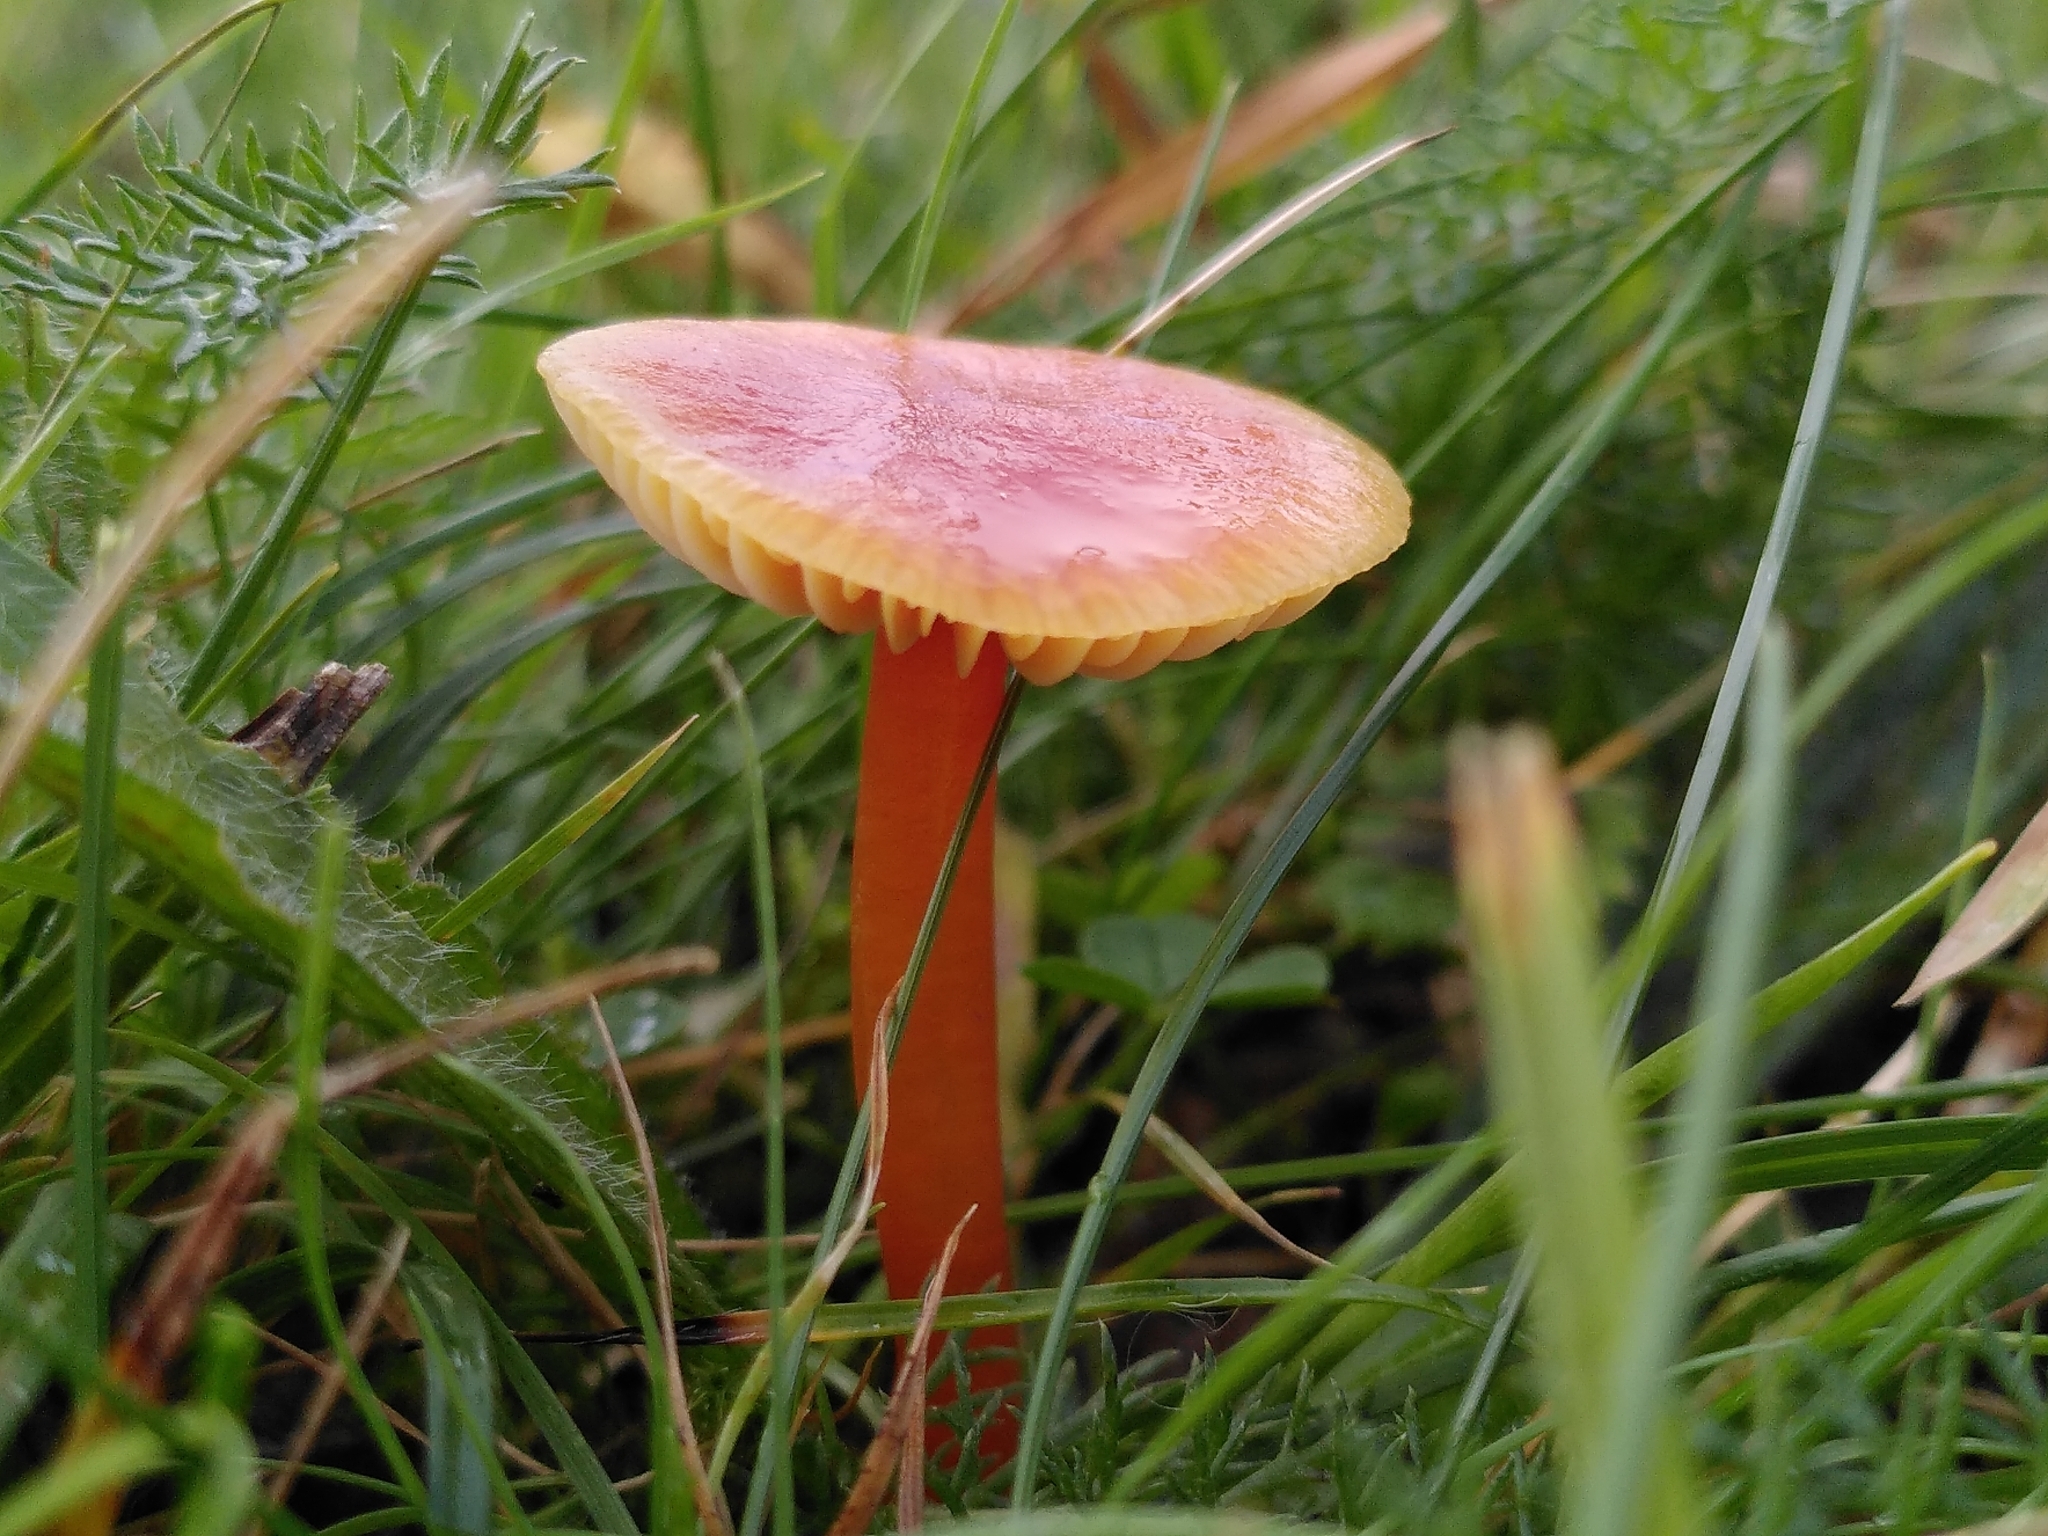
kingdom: Fungi
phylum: Basidiomycota
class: Agaricomycetes
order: Agaricales
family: Hygrophoraceae
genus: Hygrocybe
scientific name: Hygrocybe mucronella
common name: Bitter waxcap
